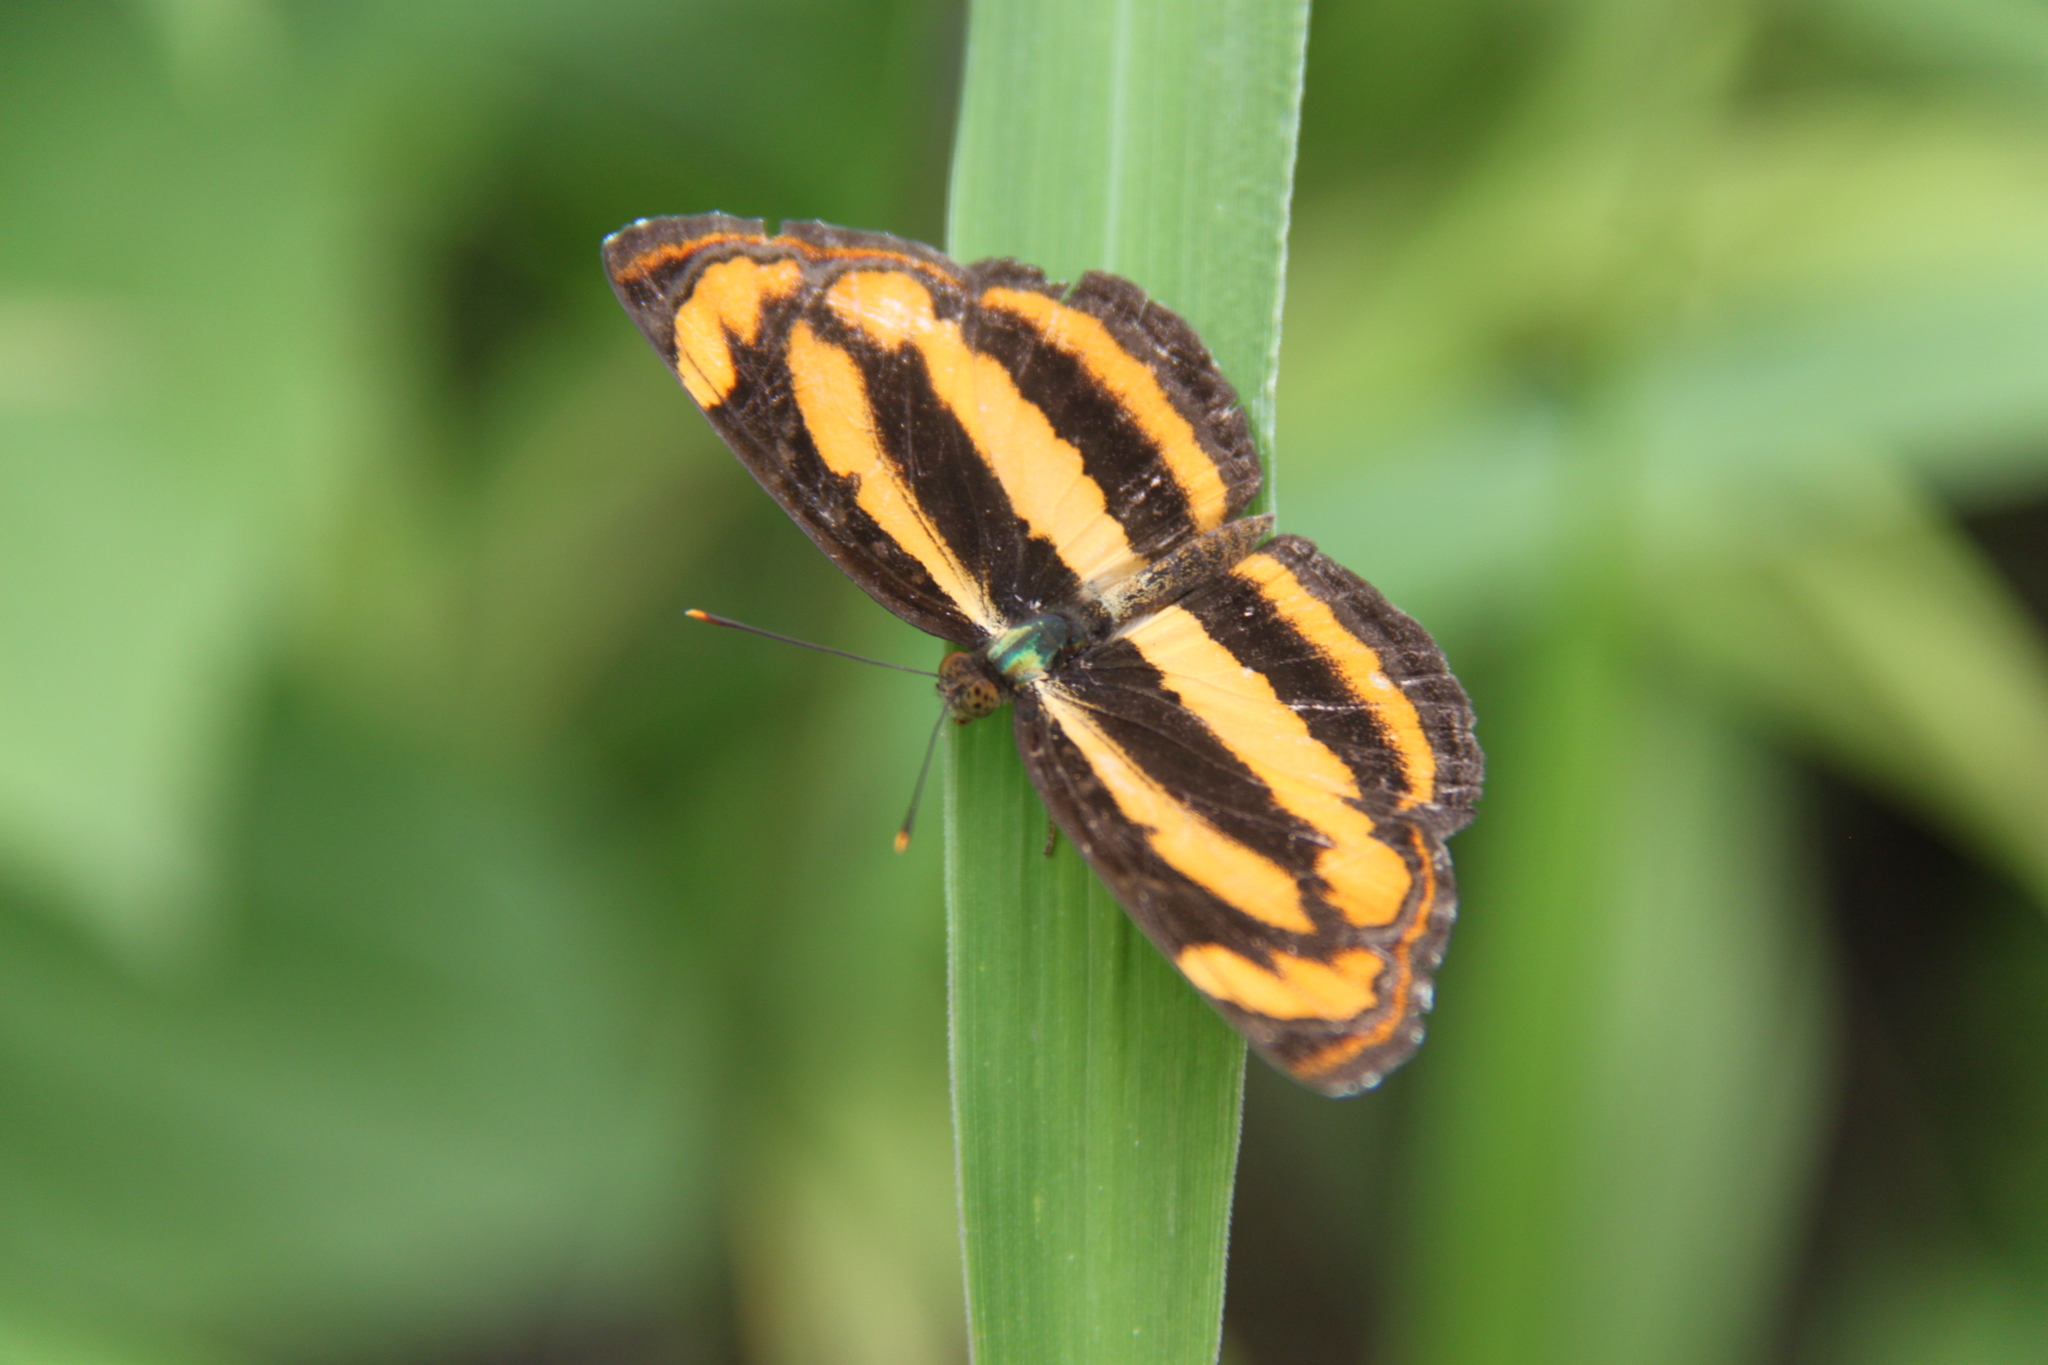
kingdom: Animalia
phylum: Arthropoda
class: Insecta
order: Lepidoptera
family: Nymphalidae
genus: Pantoporia
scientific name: Pantoporia hordonia
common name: Common lascar
